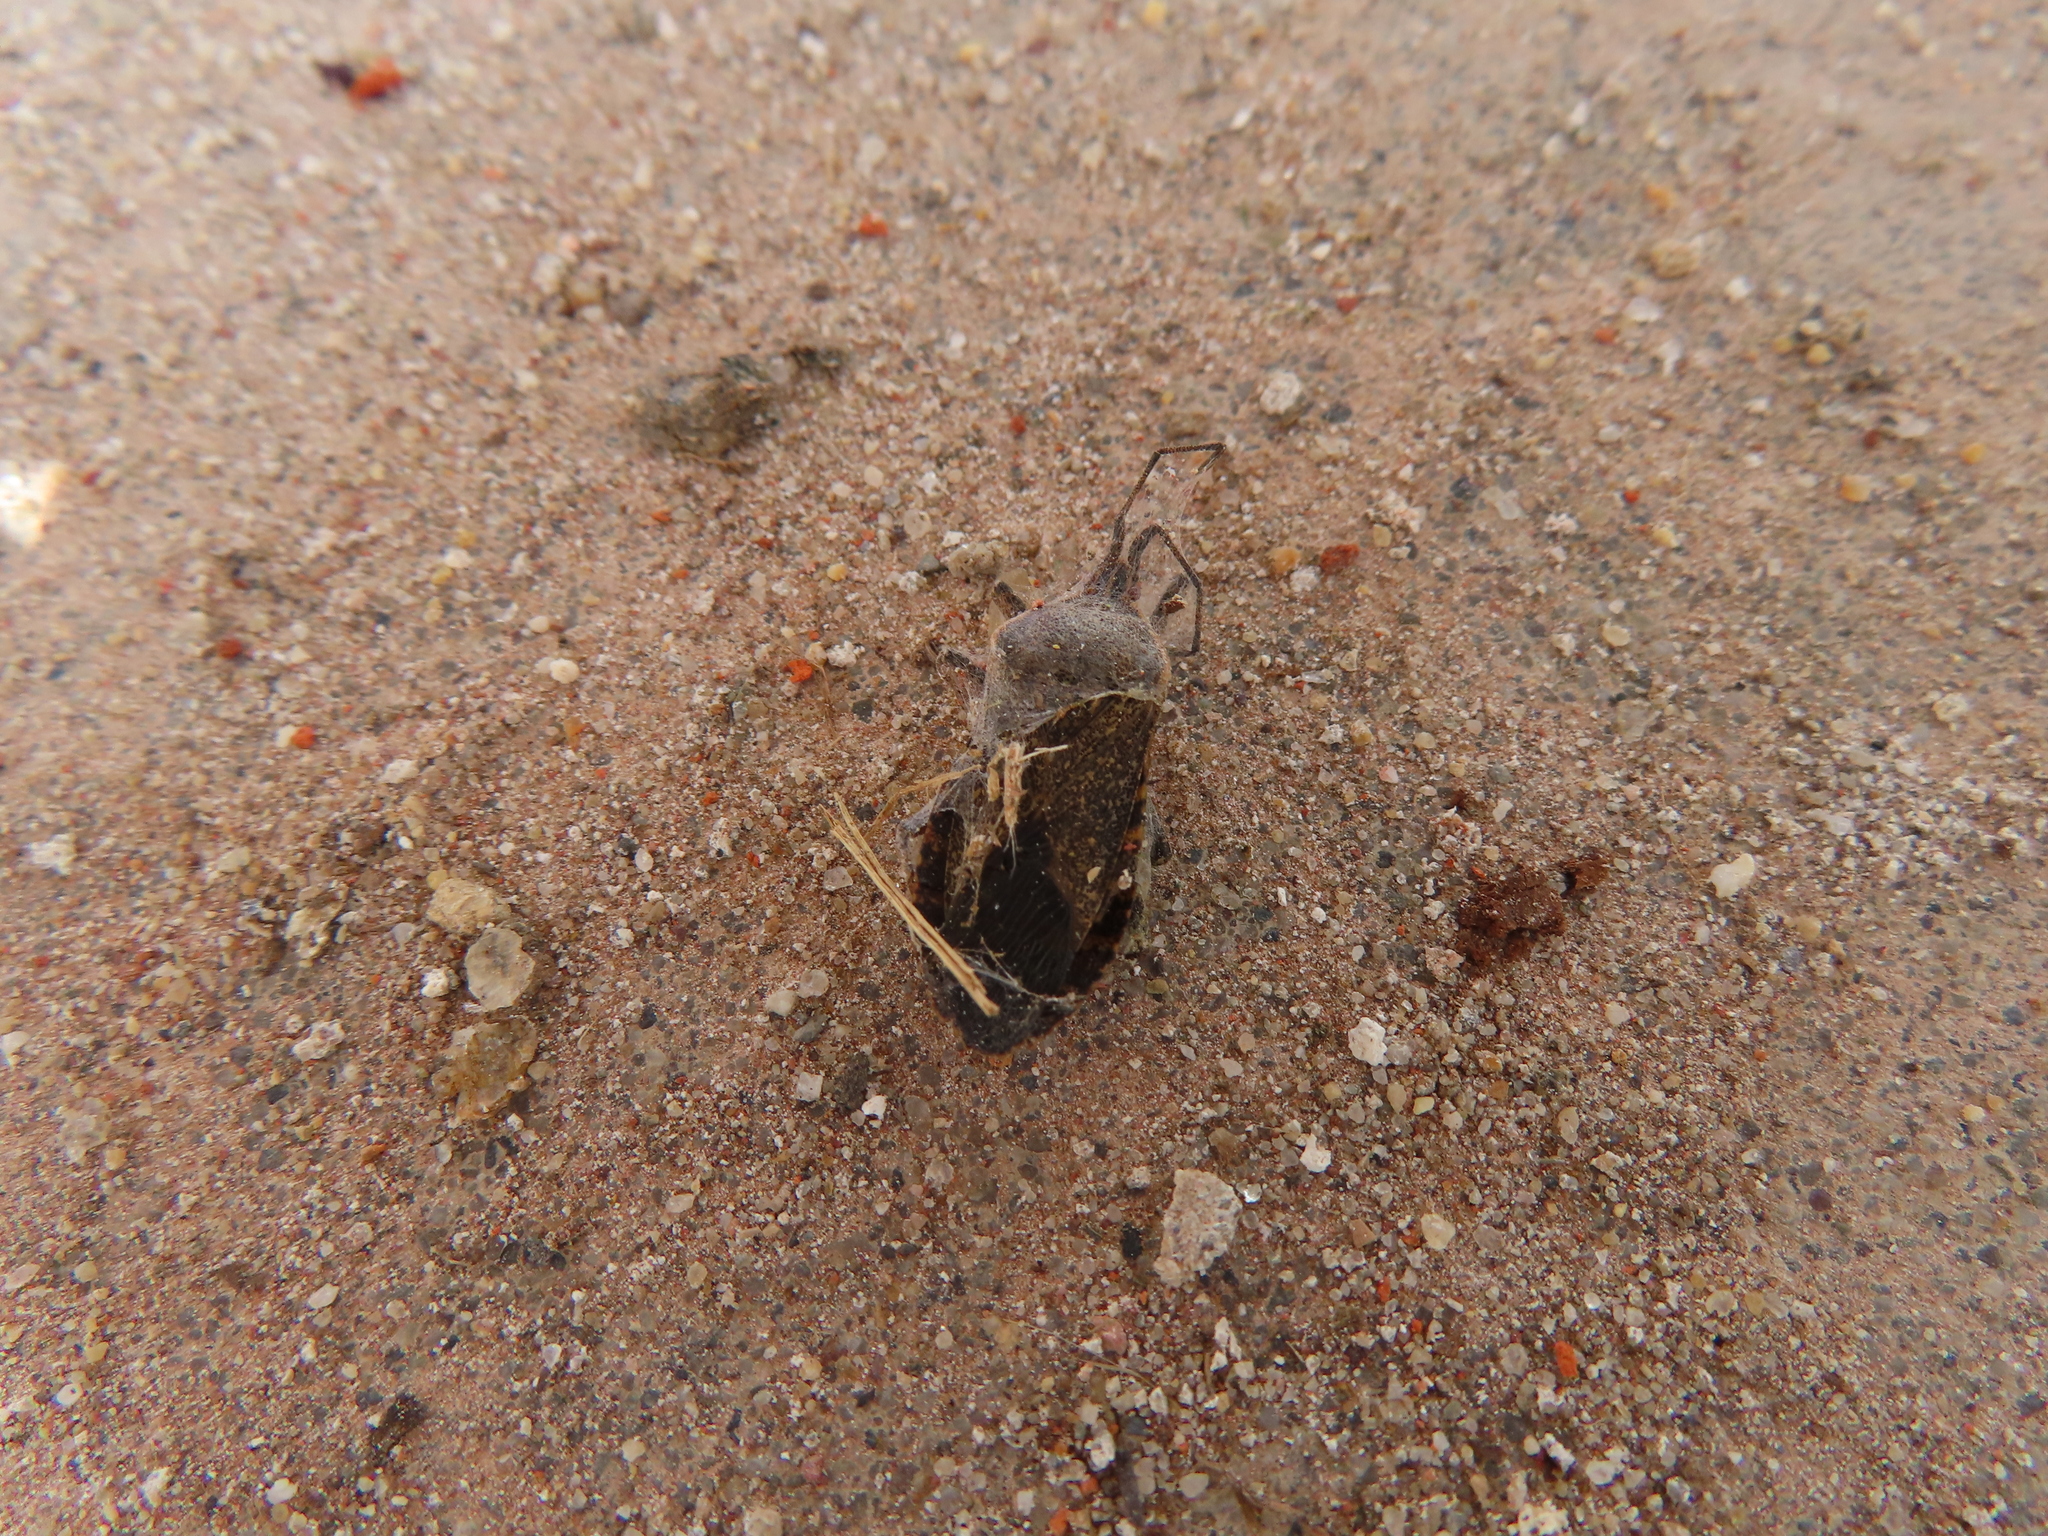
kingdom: Animalia
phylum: Arthropoda
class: Insecta
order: Hemiptera
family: Coreidae
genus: Anasa
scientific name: Anasa tristis
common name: Squash bug
